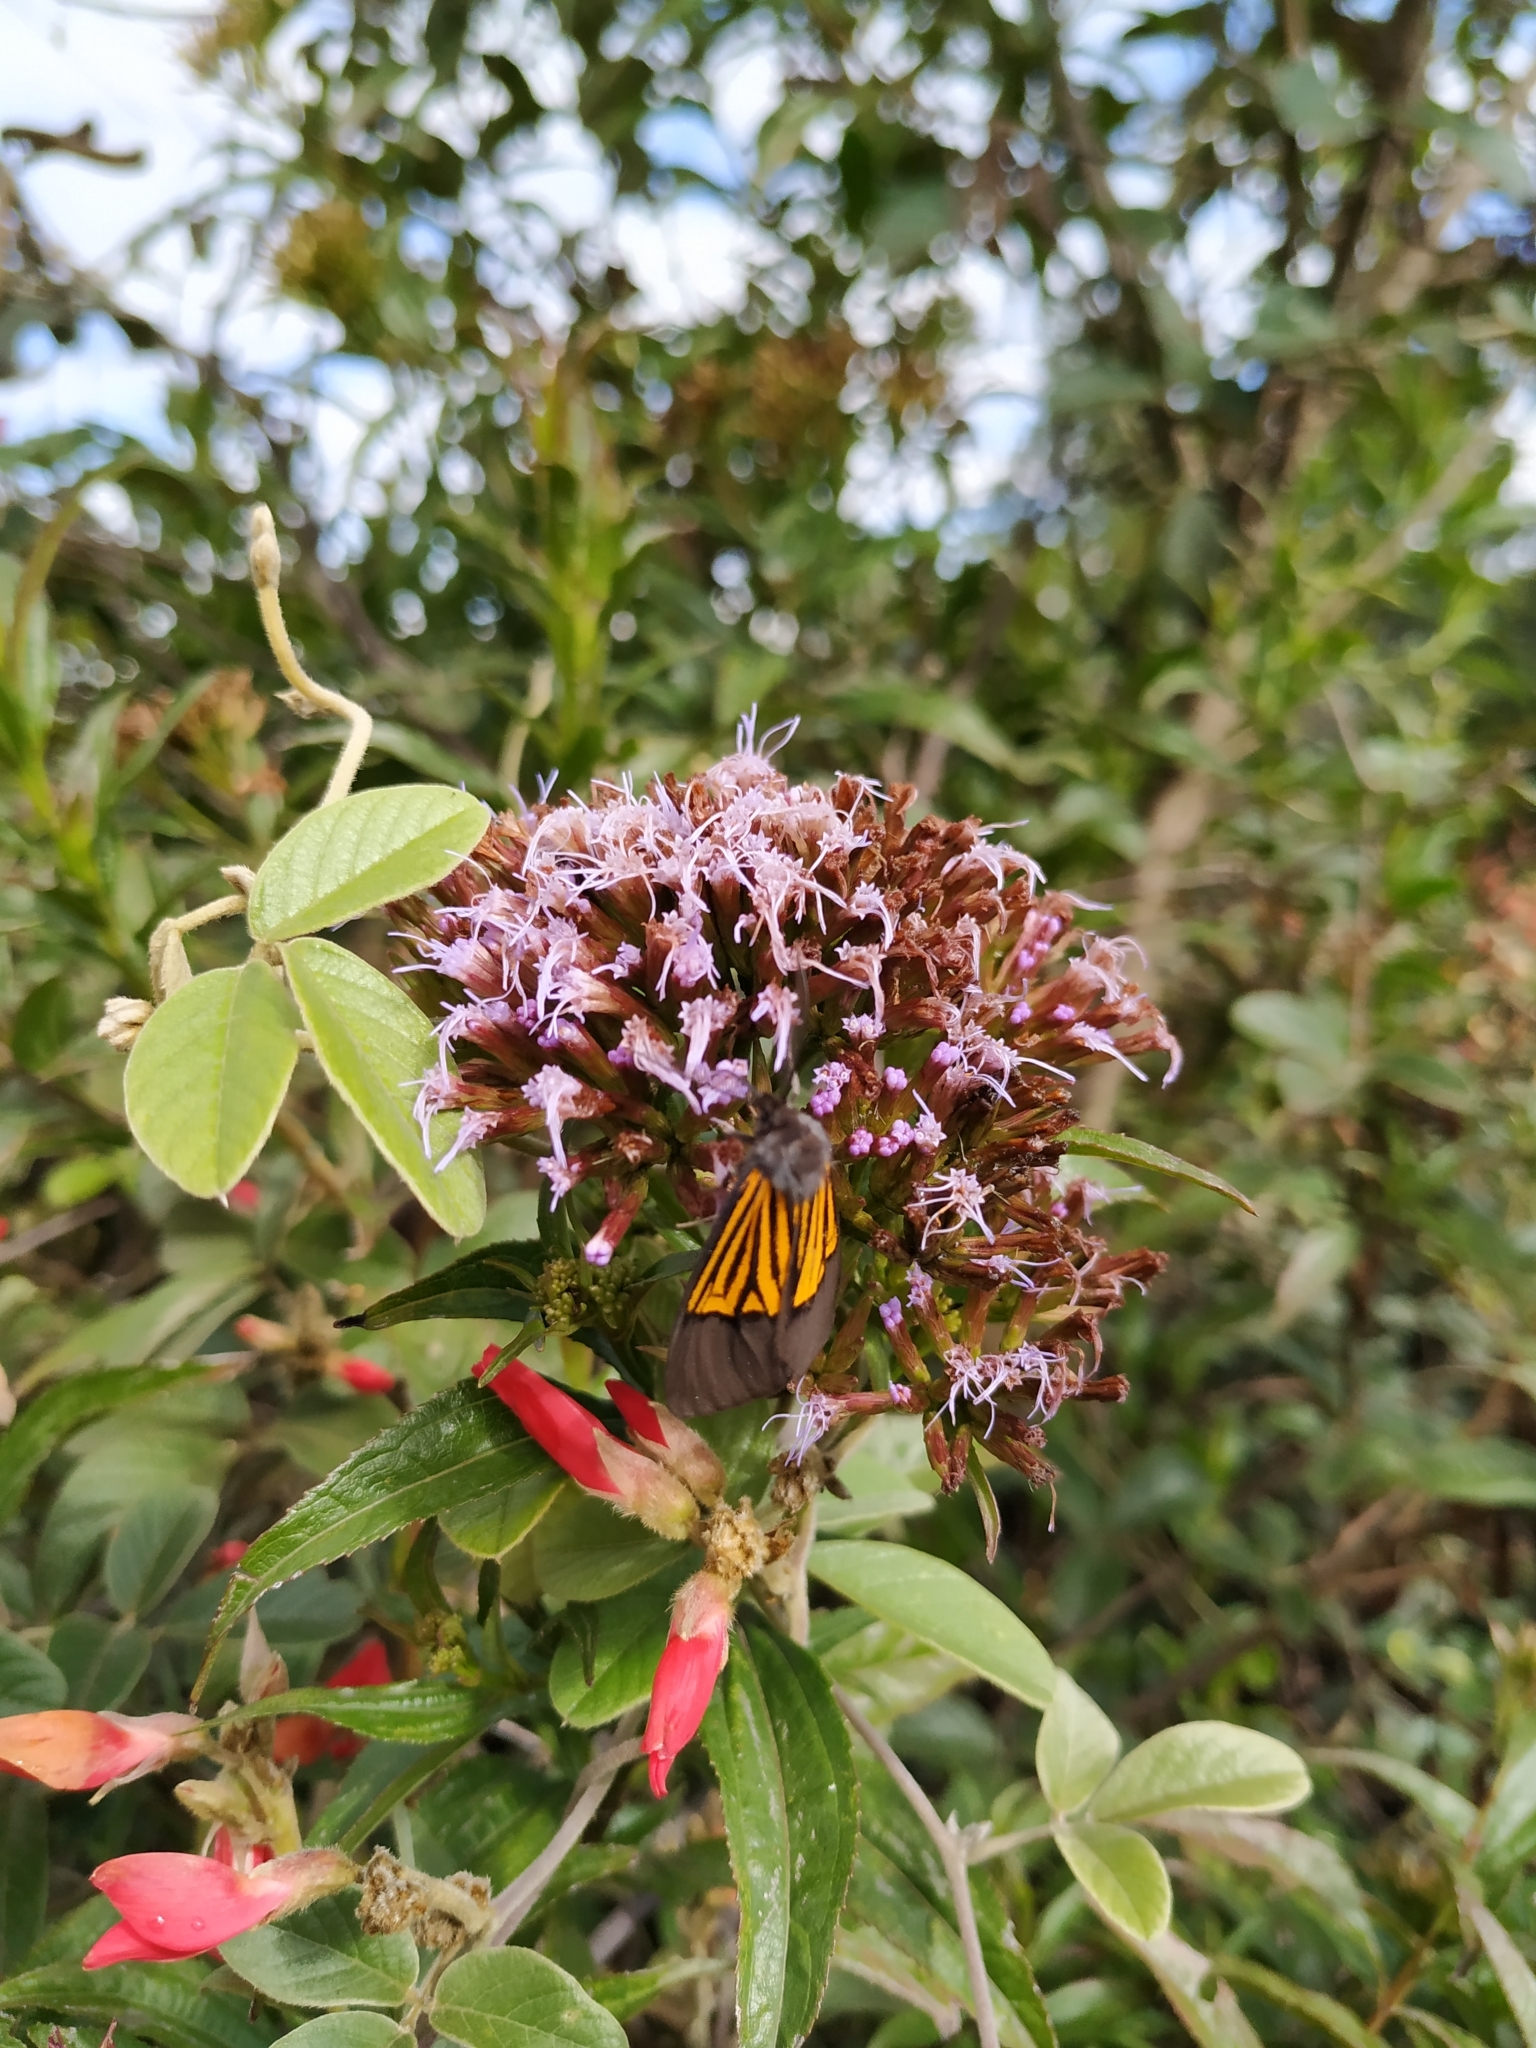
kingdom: Animalia
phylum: Arthropoda
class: Insecta
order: Lepidoptera
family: Notodontidae
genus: Scea
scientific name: Scea
